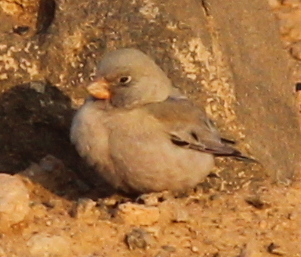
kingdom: Animalia
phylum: Chordata
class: Aves
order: Passeriformes
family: Fringillidae
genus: Bucanetes
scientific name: Bucanetes githagineus
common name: Trumpeter finch
